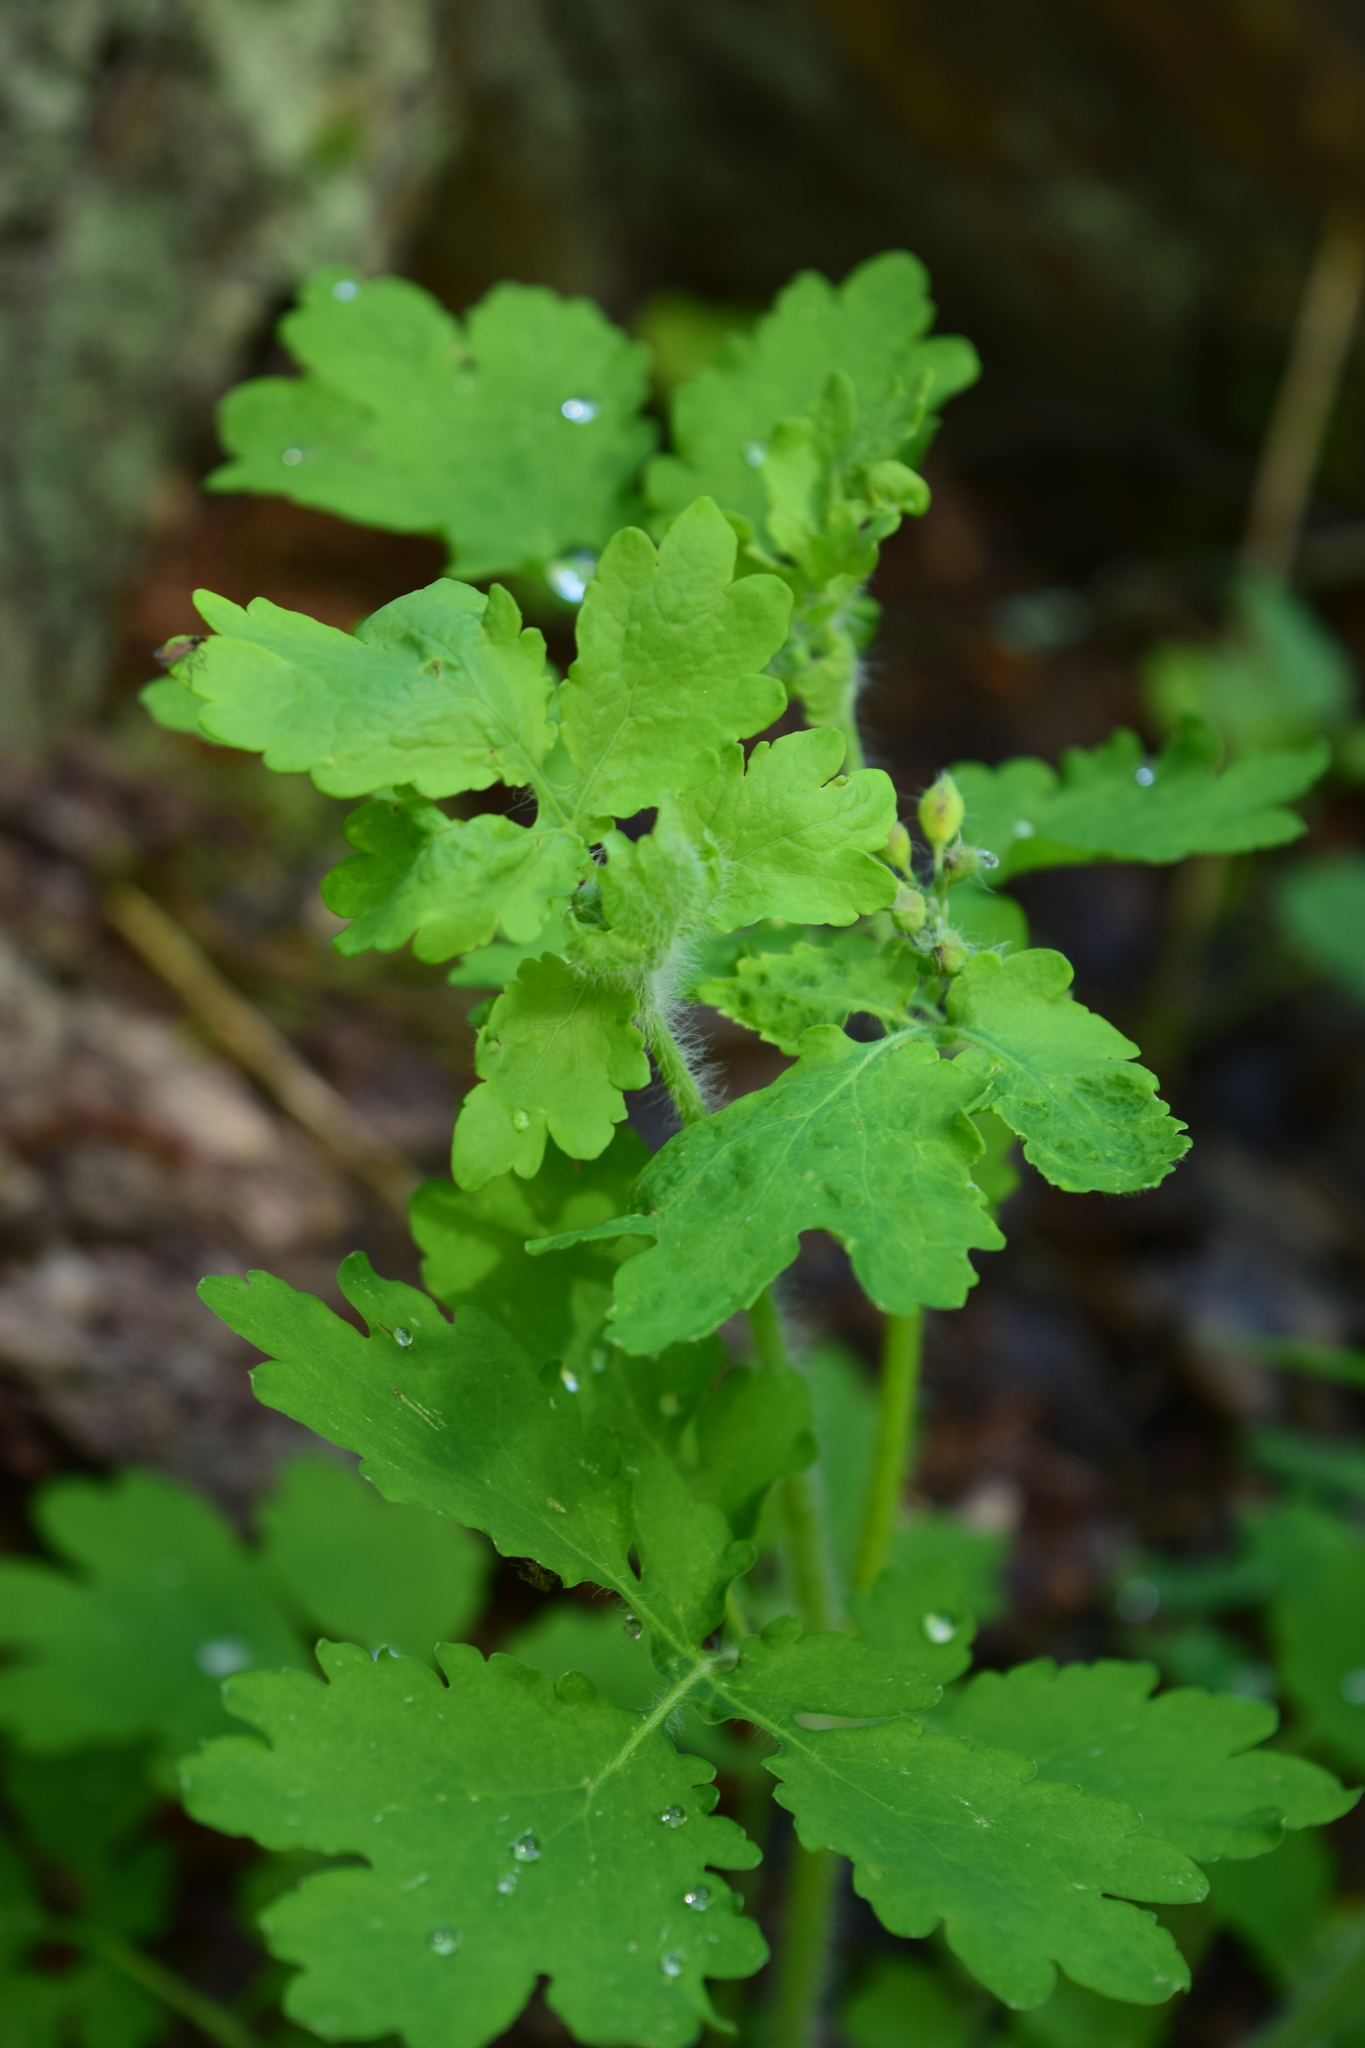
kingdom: Plantae
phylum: Tracheophyta
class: Magnoliopsida
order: Ranunculales
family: Papaveraceae
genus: Chelidonium
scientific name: Chelidonium majus
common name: Greater celandine
